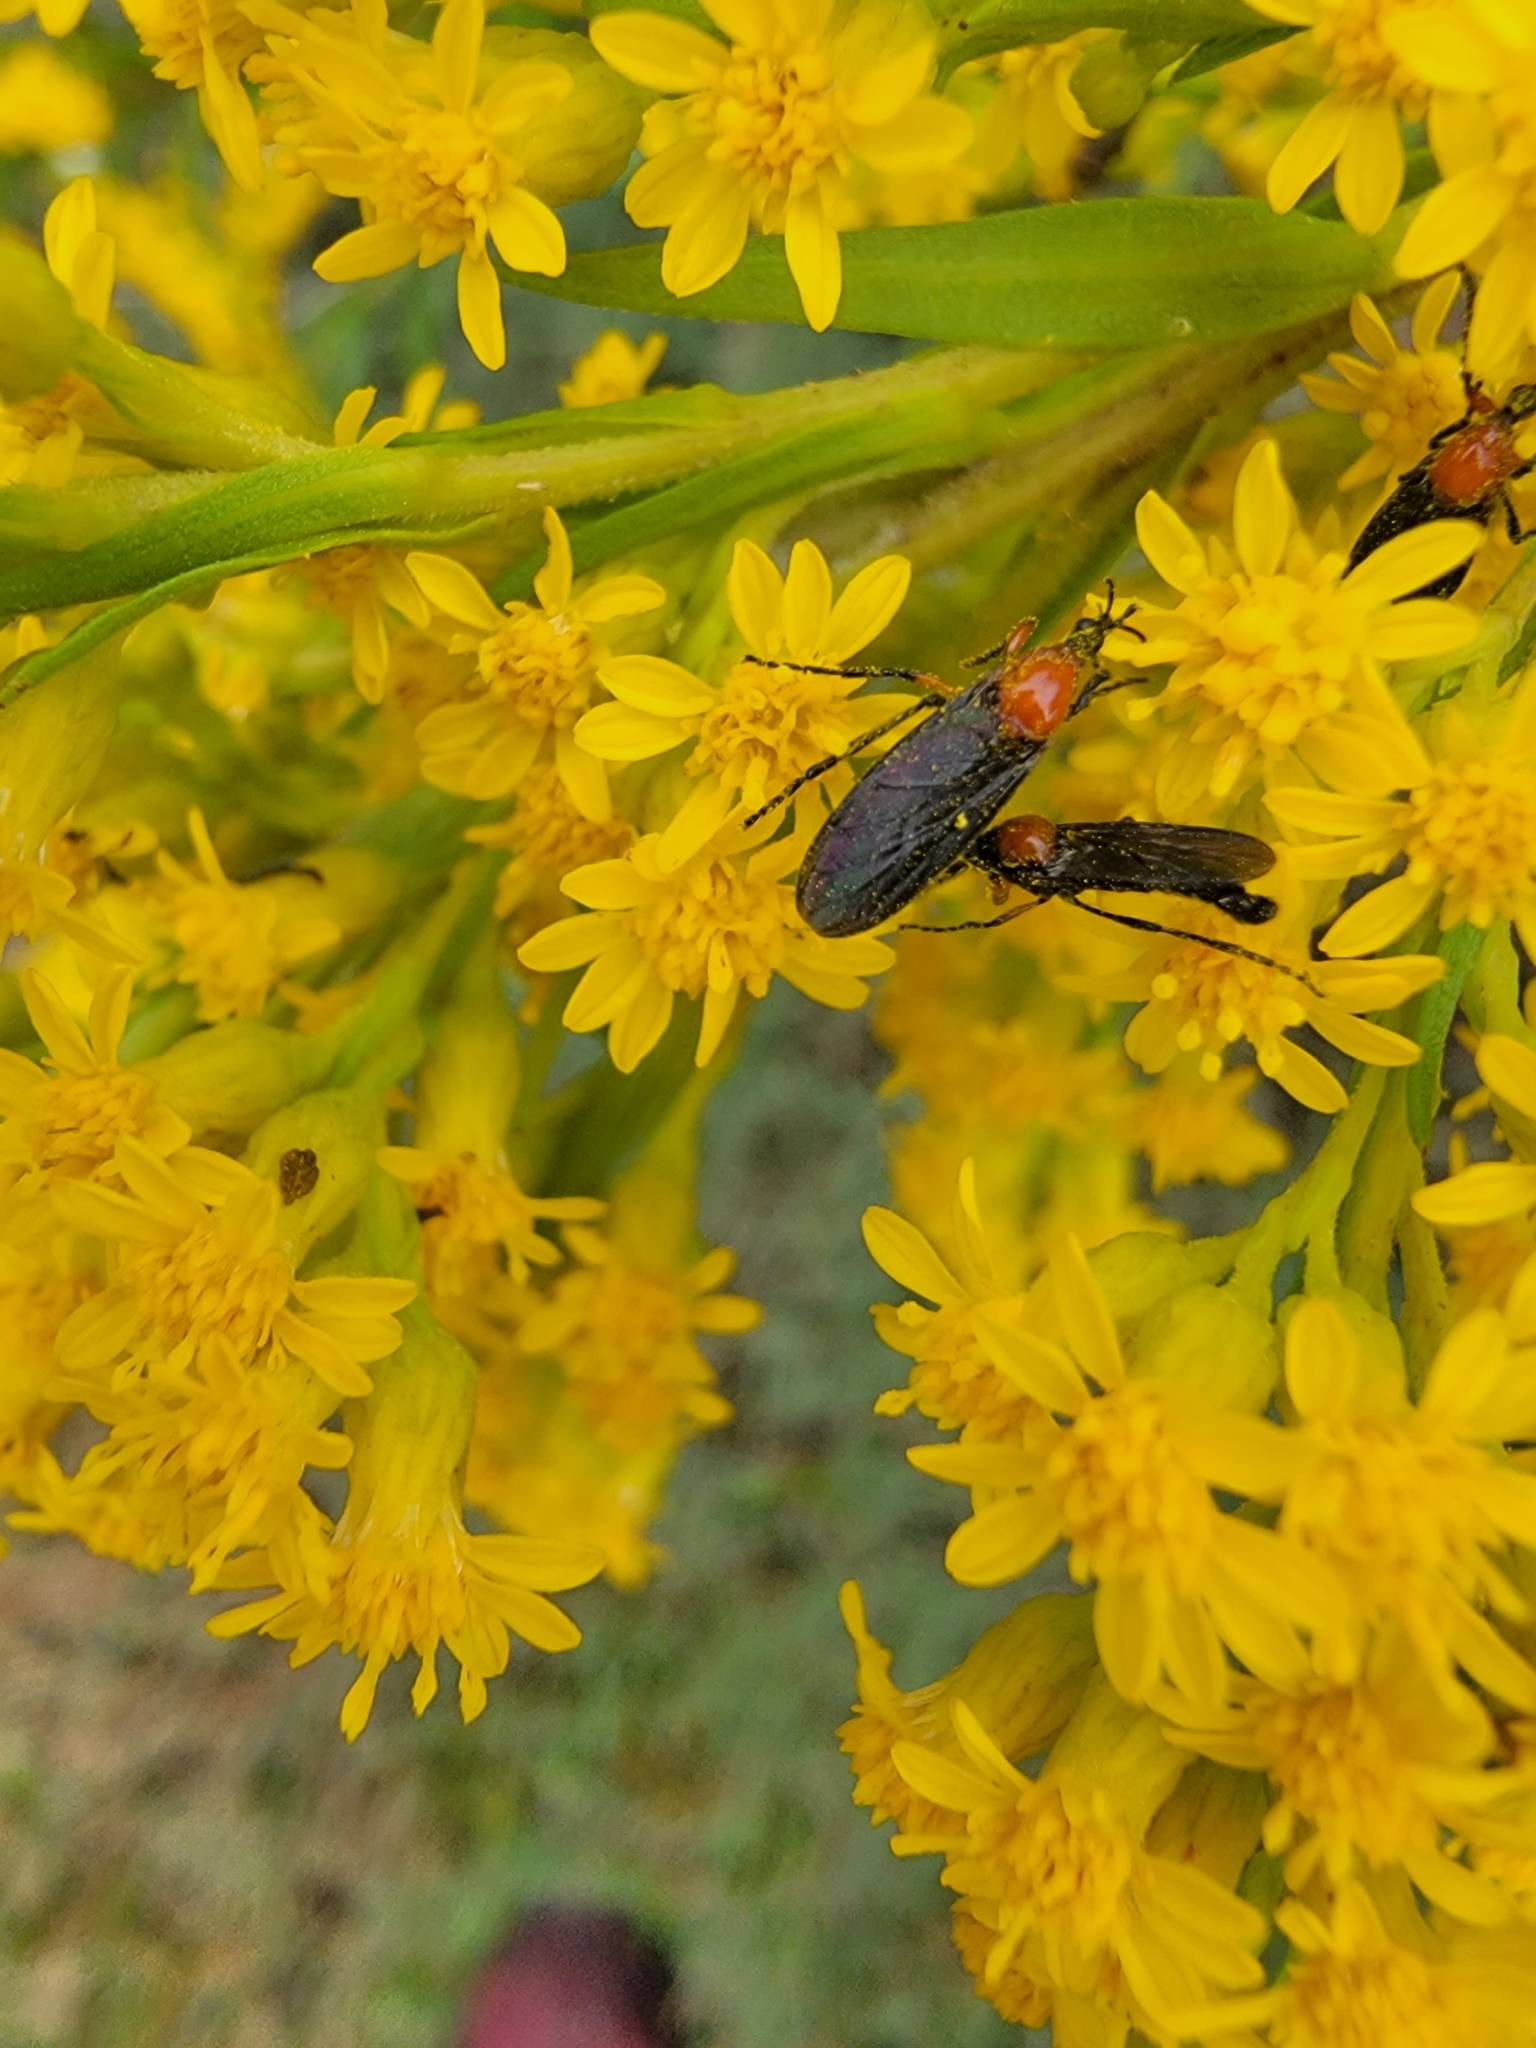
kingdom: Animalia
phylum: Arthropoda
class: Insecta
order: Diptera
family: Bibionidae
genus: Dilophus
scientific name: Dilophus spinipes
